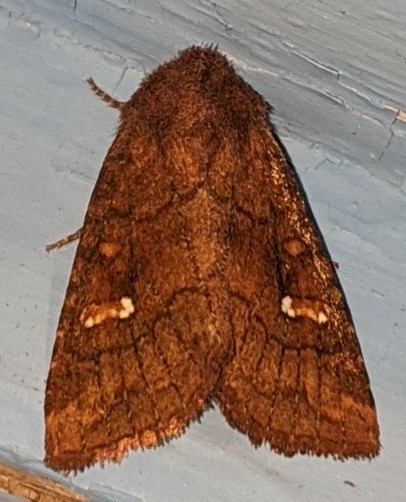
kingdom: Animalia
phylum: Arthropoda
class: Insecta
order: Lepidoptera
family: Noctuidae
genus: Tricholita
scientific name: Tricholita signata
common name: Signate quaker
